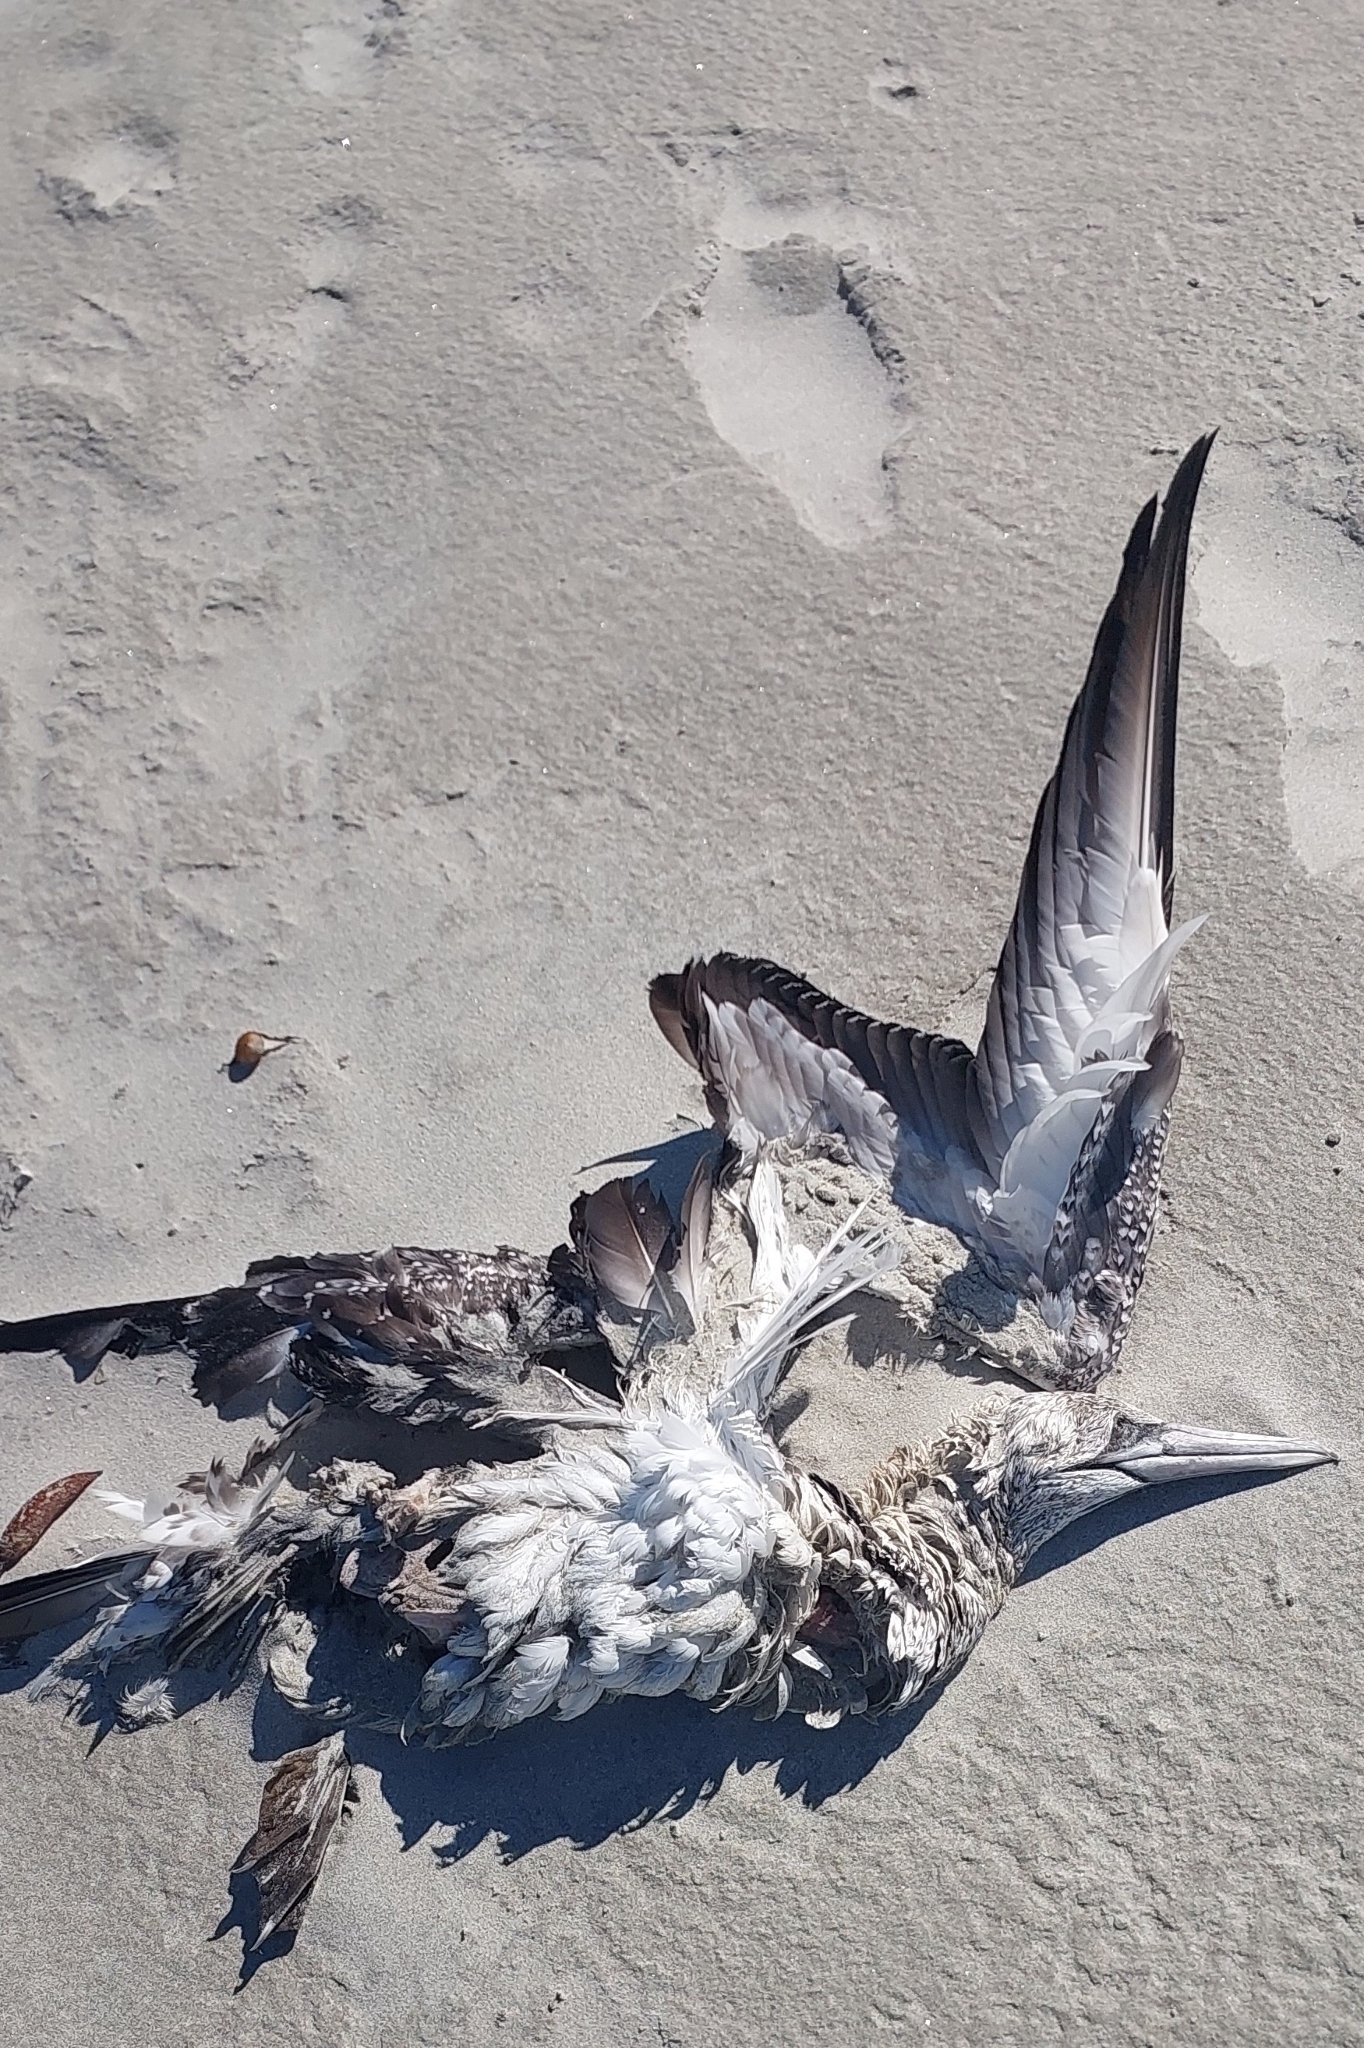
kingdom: Animalia
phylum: Chordata
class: Aves
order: Suliformes
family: Sulidae
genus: Morus
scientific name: Morus serrator
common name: Australasian gannet
